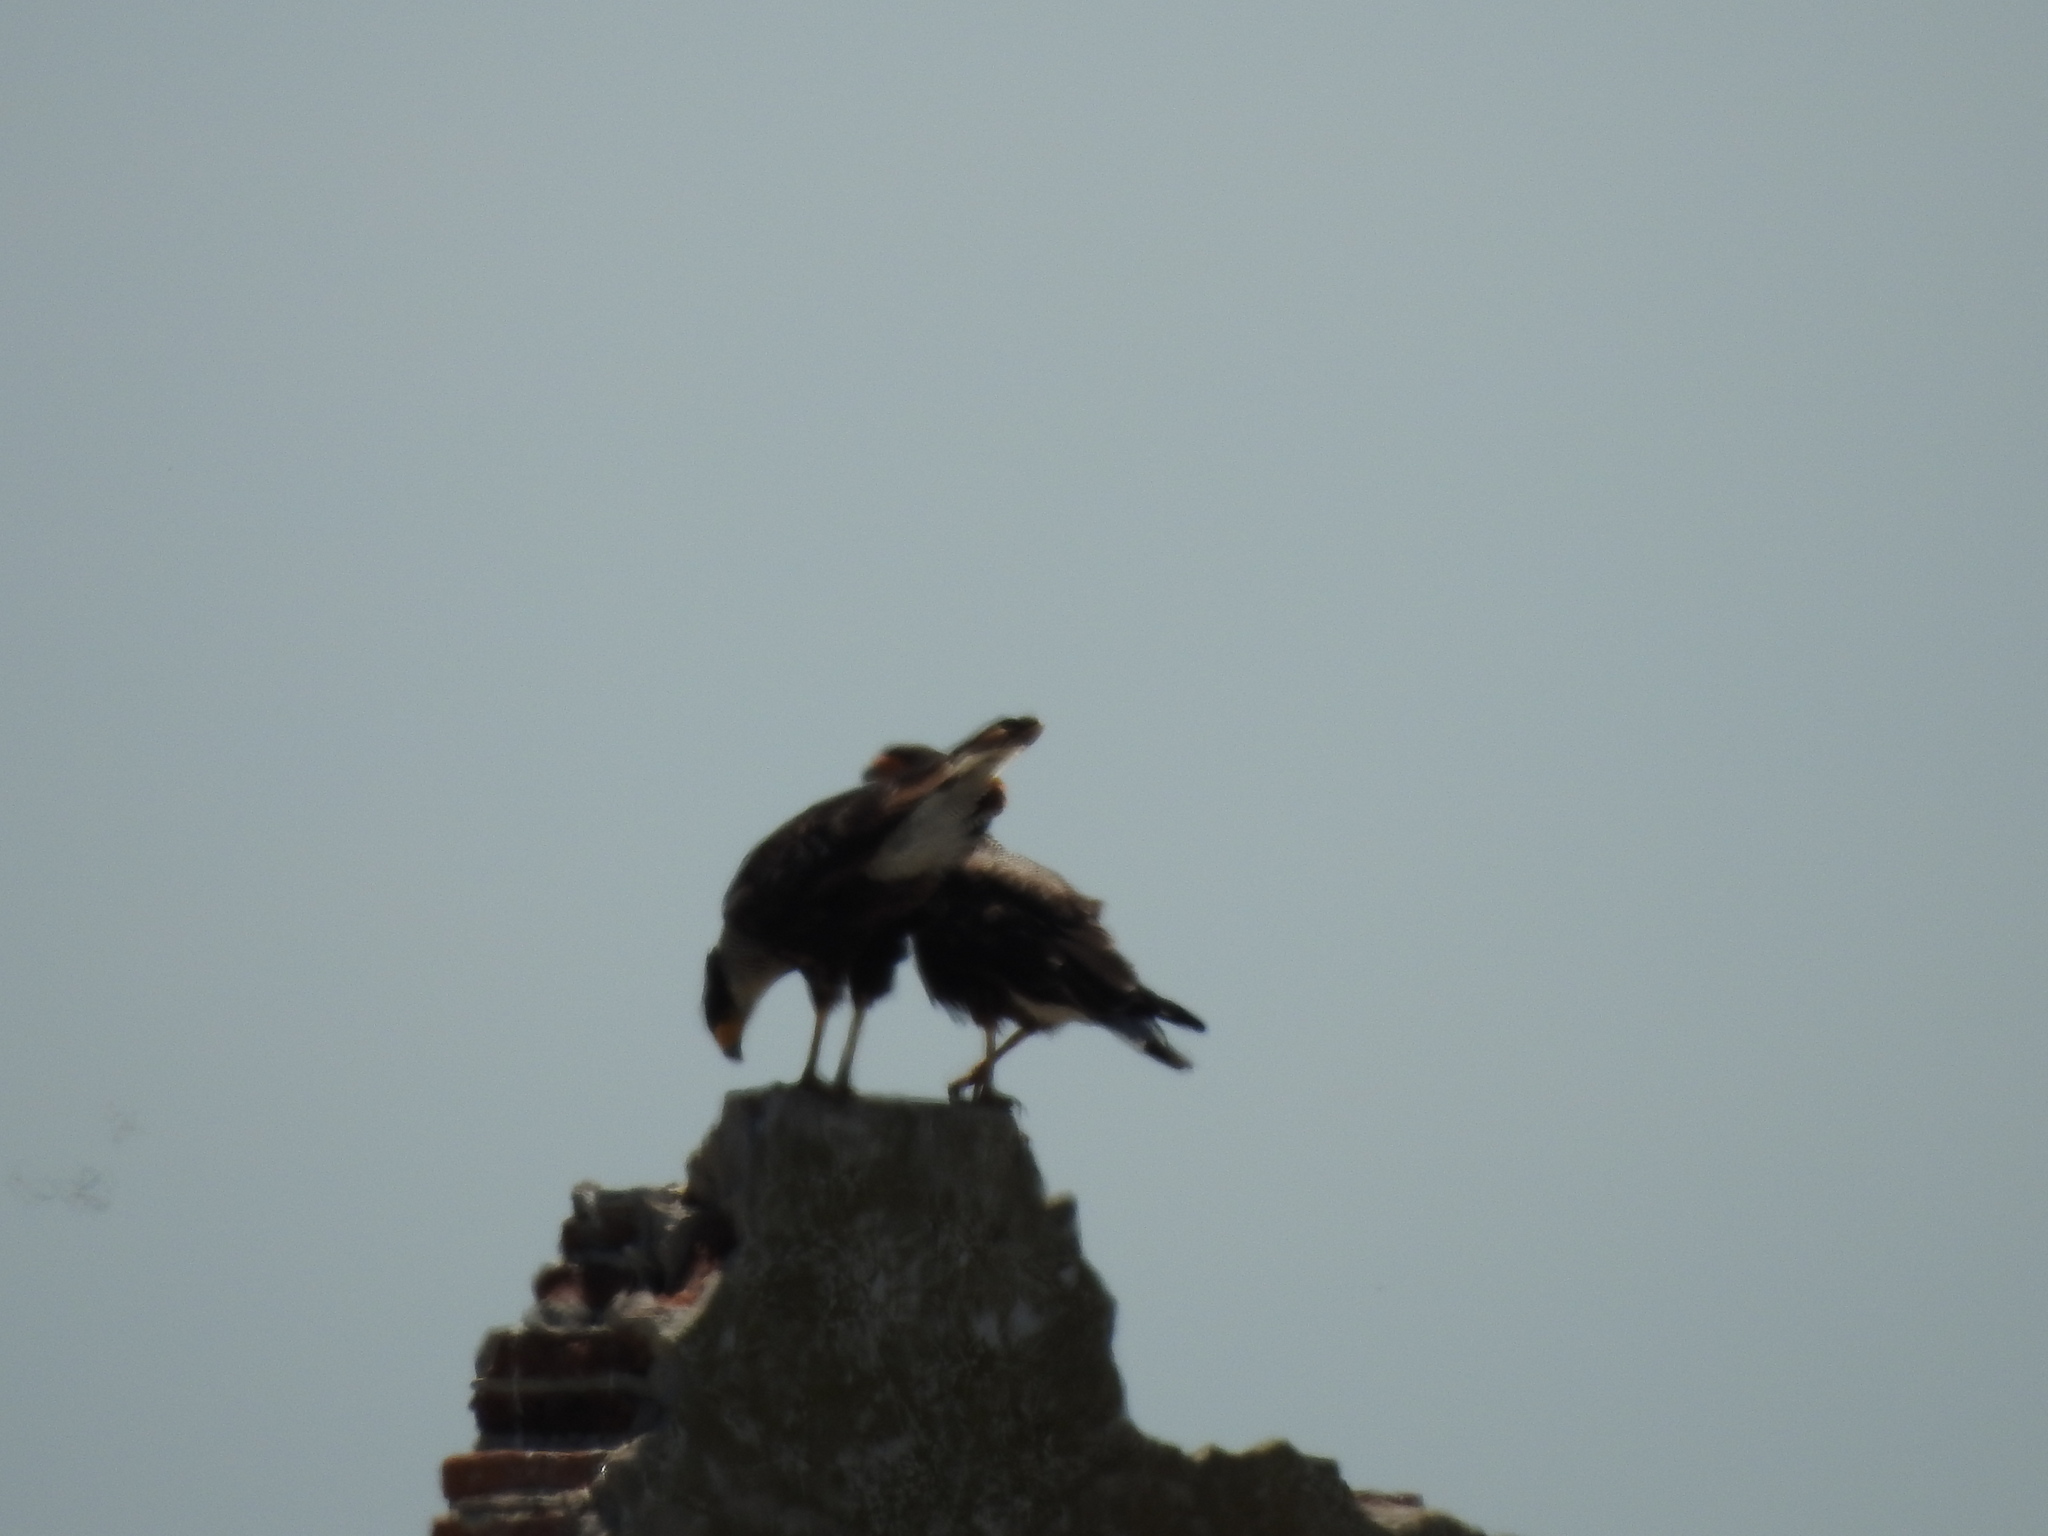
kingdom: Animalia
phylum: Chordata
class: Aves
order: Falconiformes
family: Falconidae
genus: Caracara
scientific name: Caracara plancus
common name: Southern caracara
